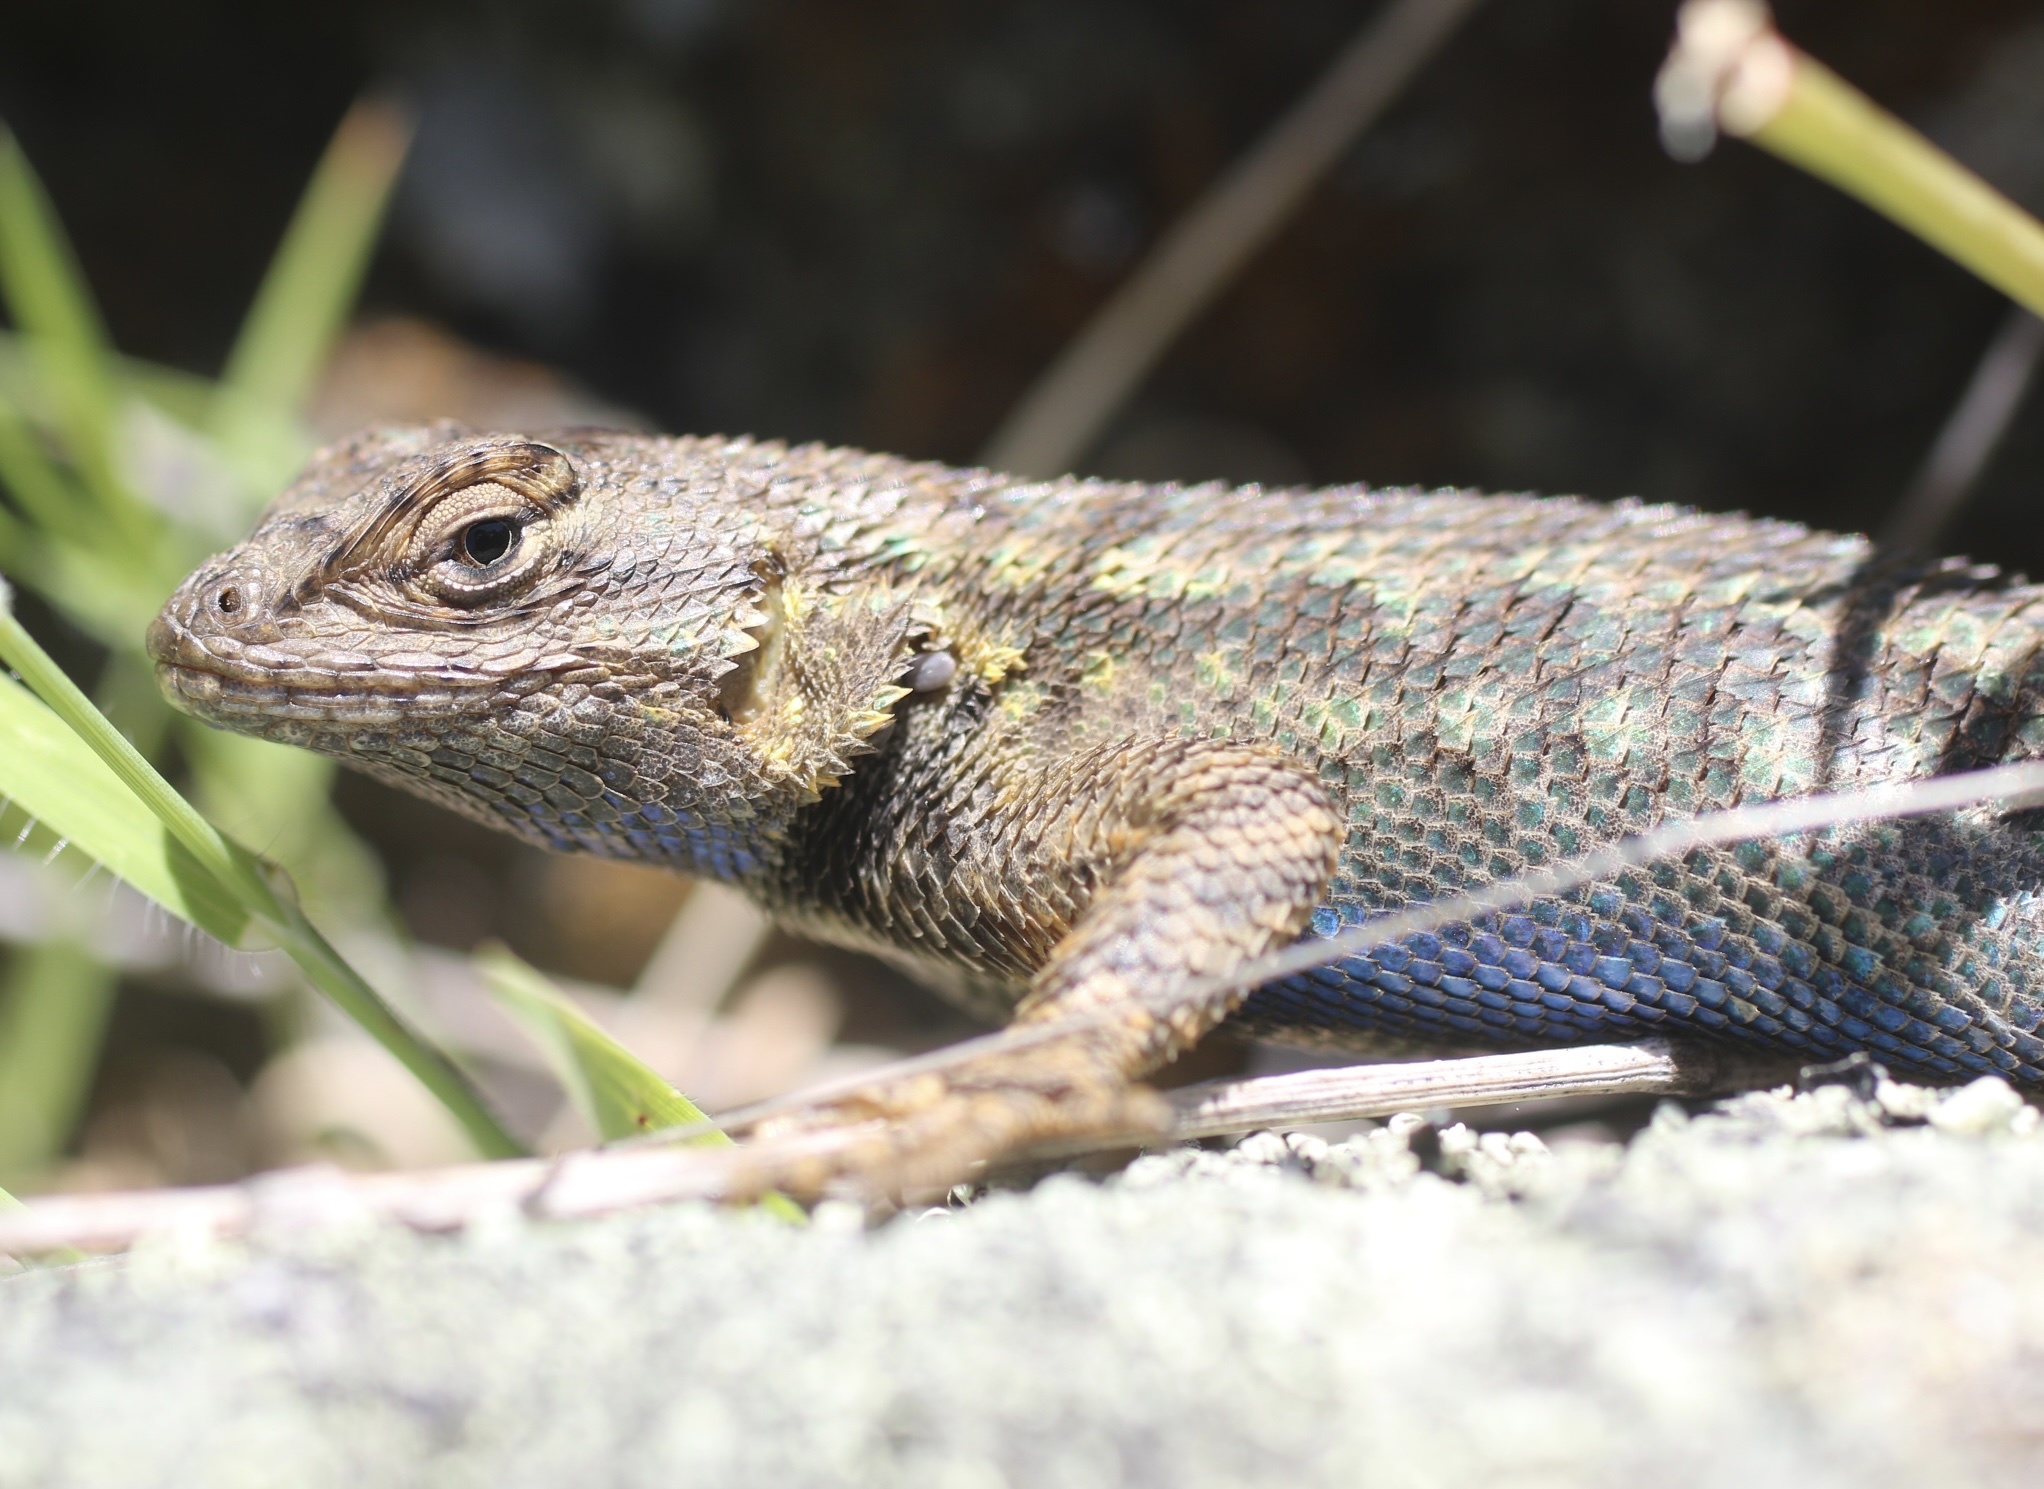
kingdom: Animalia
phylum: Chordata
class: Squamata
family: Phrynosomatidae
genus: Sceloporus
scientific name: Sceloporus occidentalis
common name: Western fence lizard
